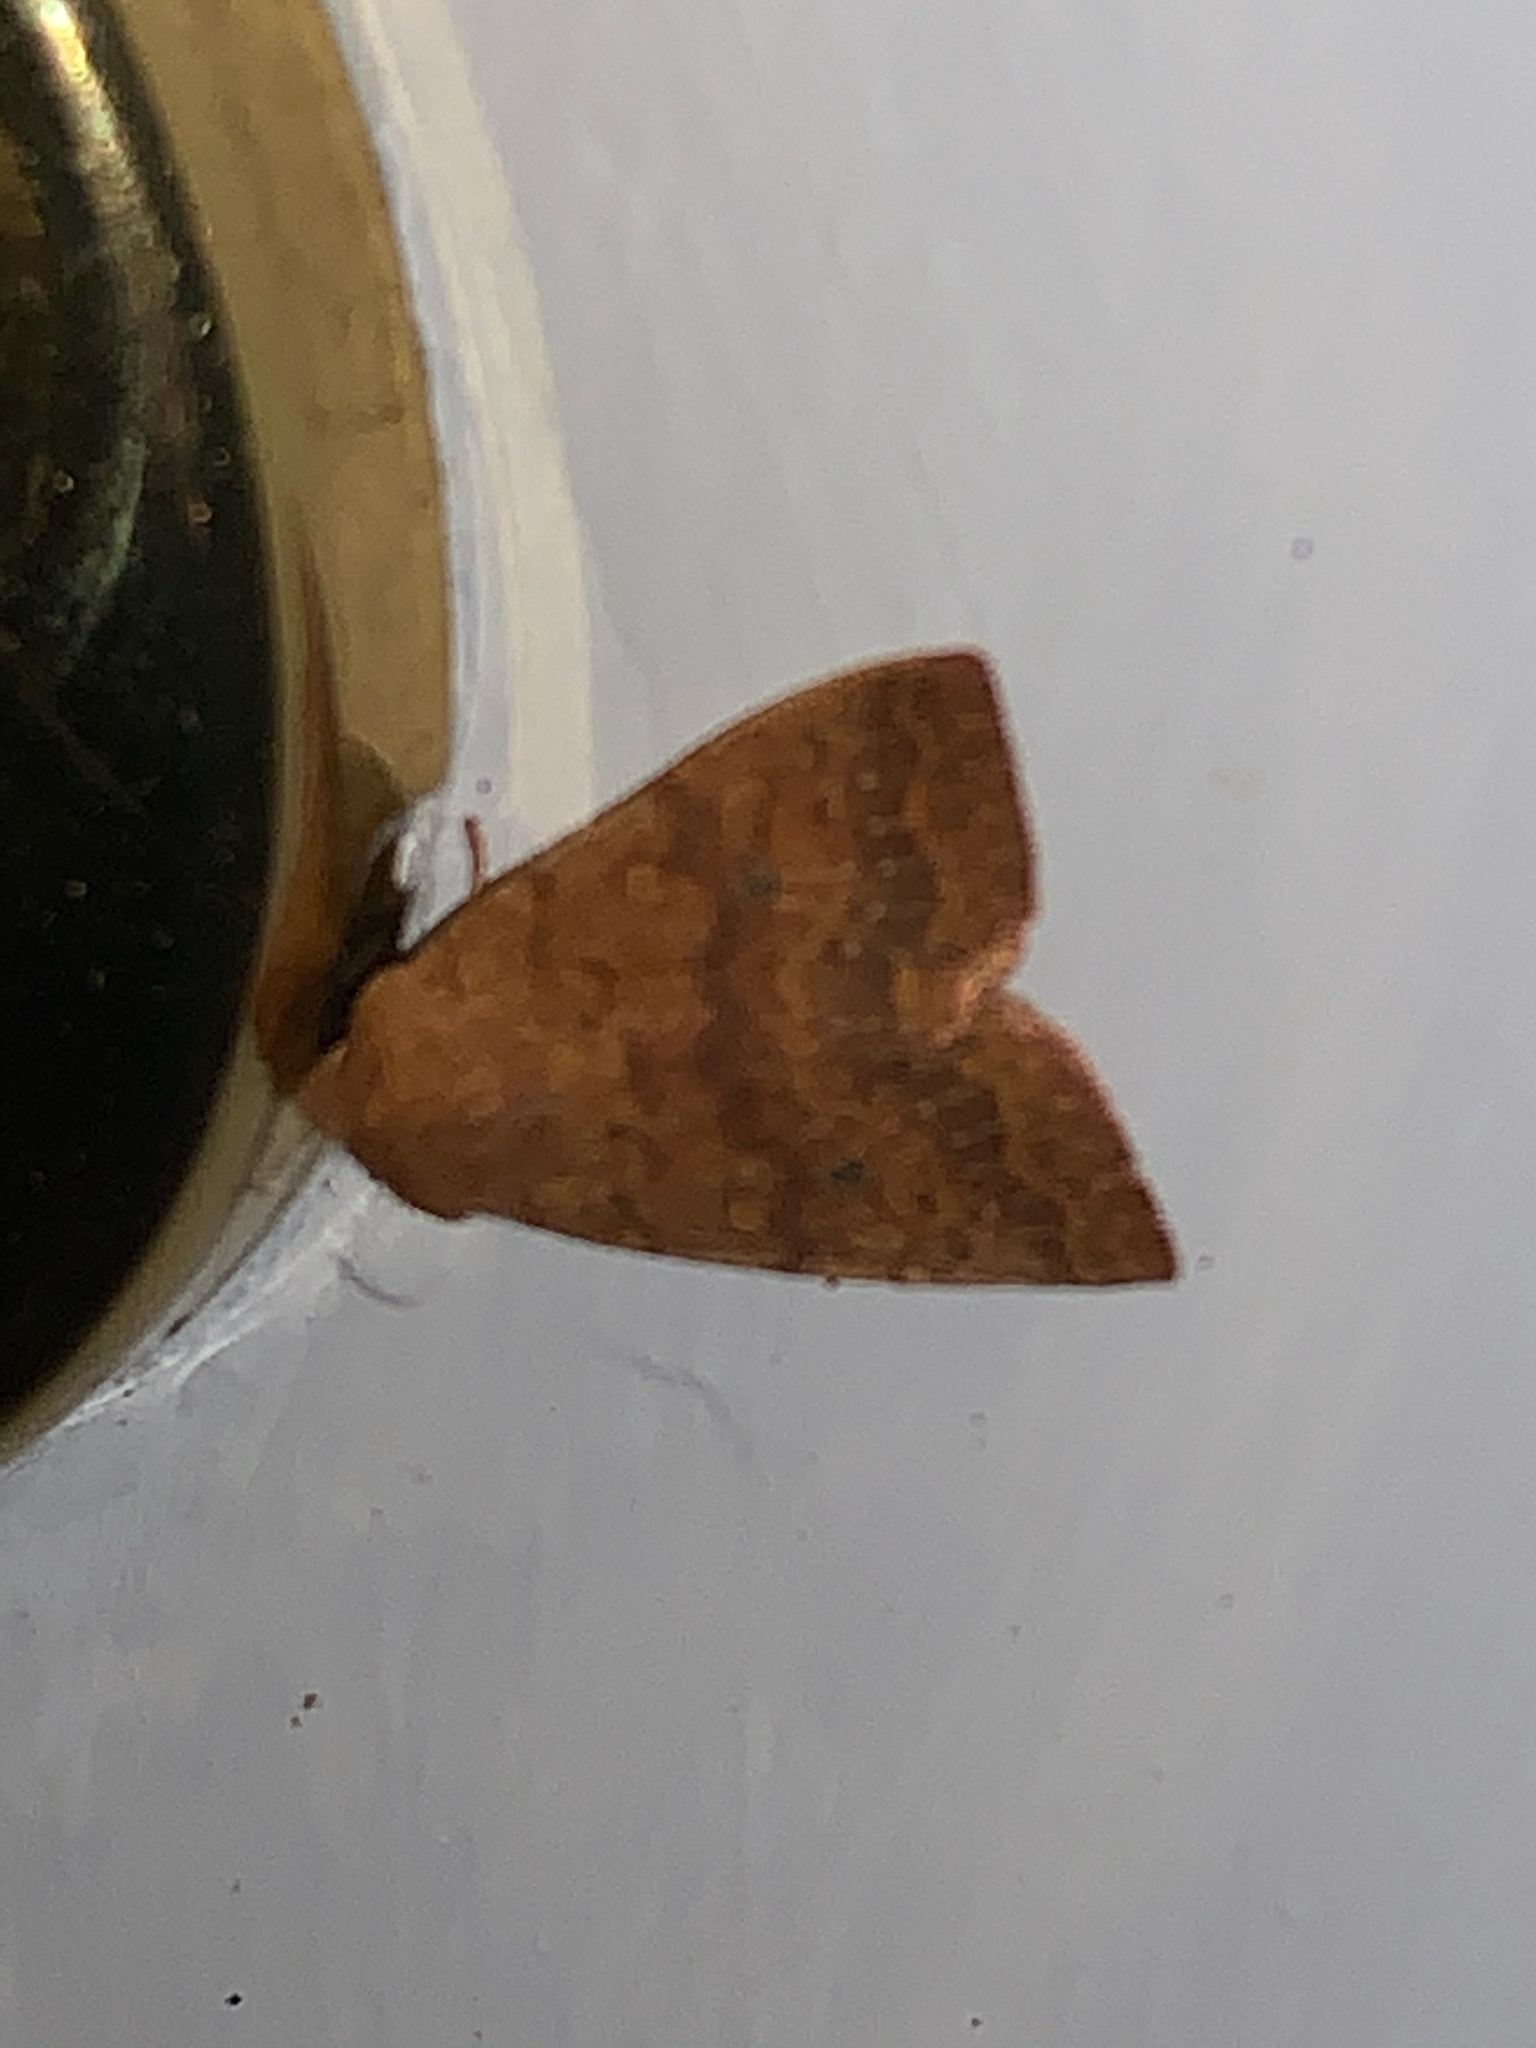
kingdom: Animalia
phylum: Arthropoda
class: Insecta
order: Lepidoptera
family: Noctuidae
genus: Agrochola
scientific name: Agrochola bicolorago
